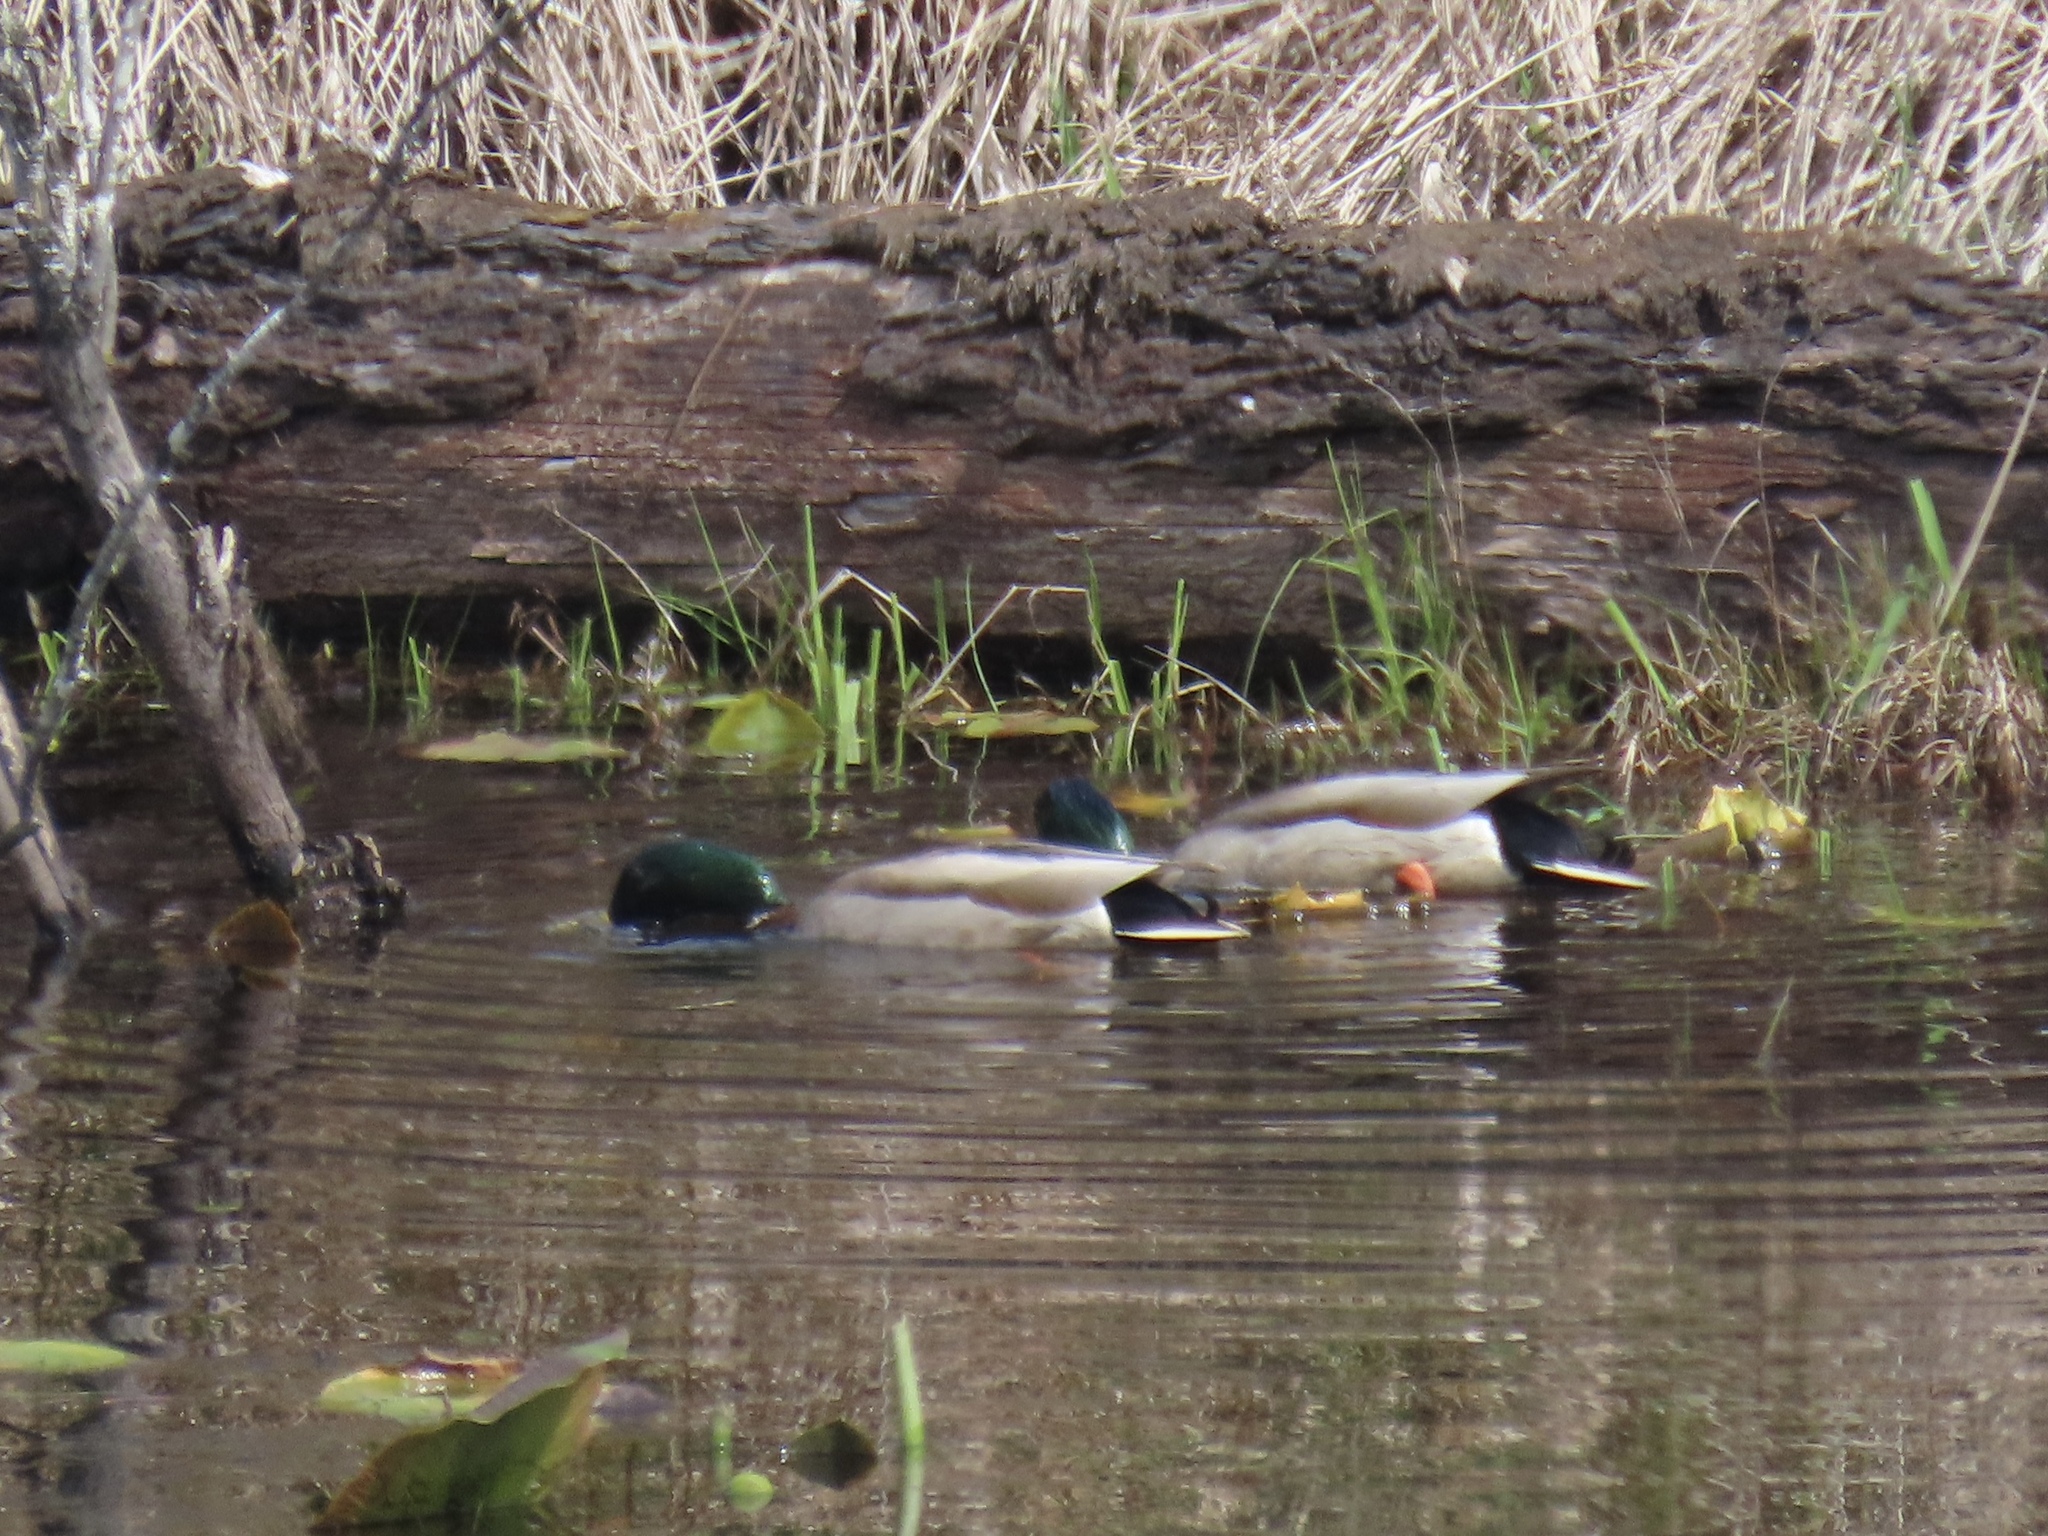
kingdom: Animalia
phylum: Chordata
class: Aves
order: Anseriformes
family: Anatidae
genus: Anas
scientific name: Anas platyrhynchos
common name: Mallard
